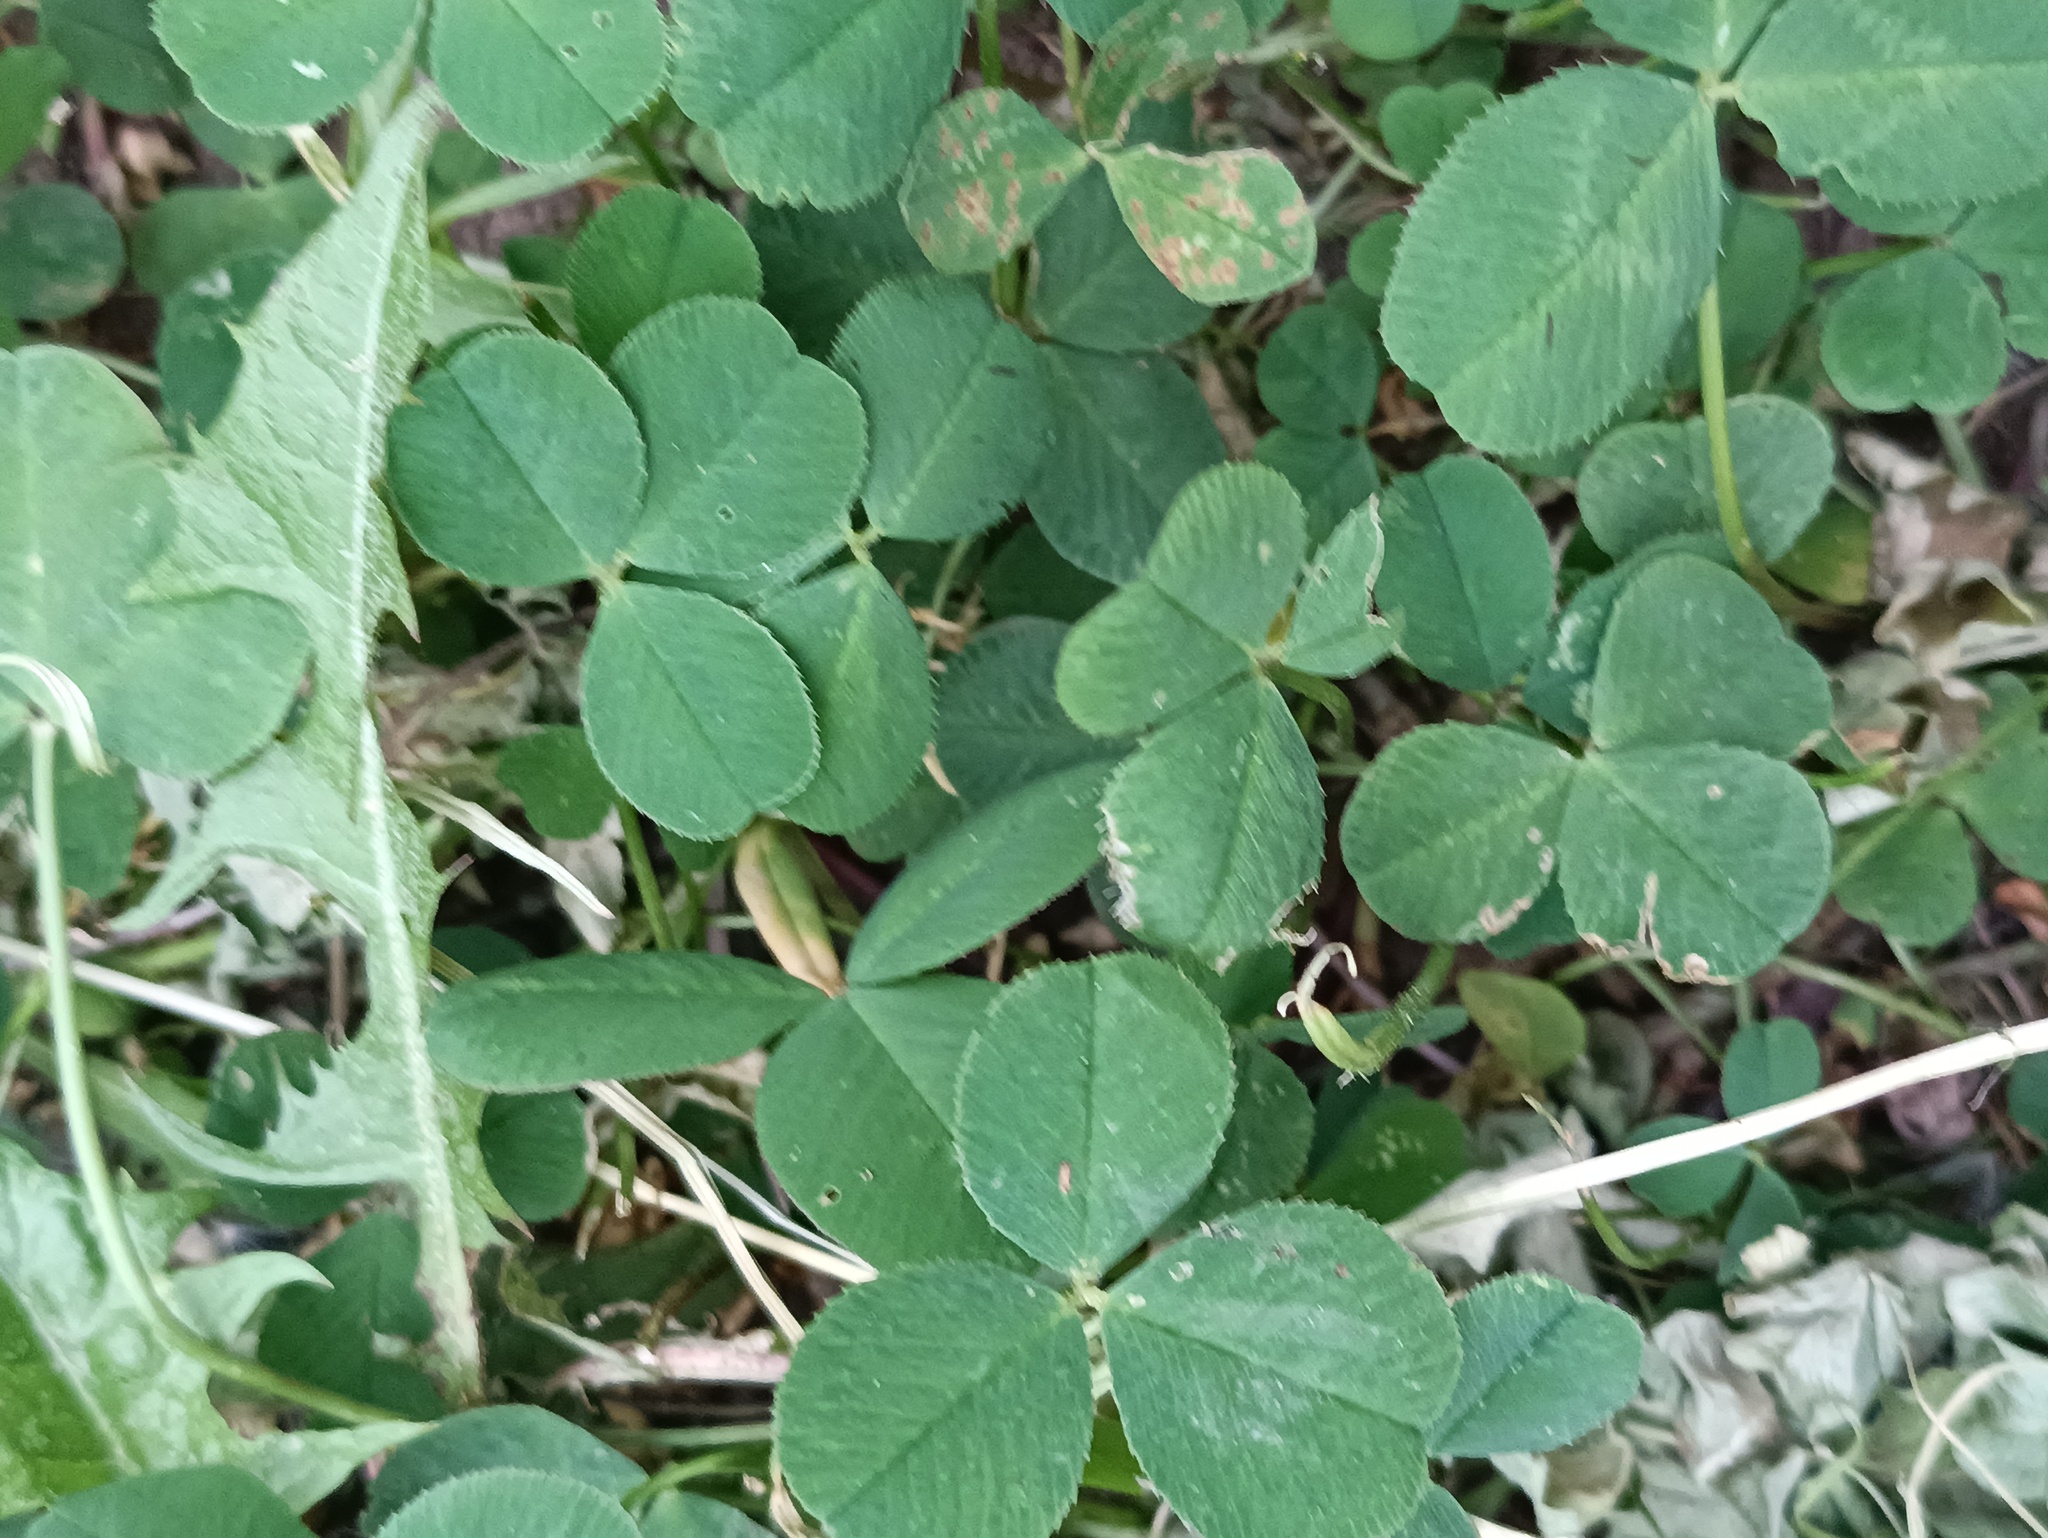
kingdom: Plantae
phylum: Tracheophyta
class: Magnoliopsida
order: Fabales
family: Fabaceae
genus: Trifolium
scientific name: Trifolium repens
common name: White clover
